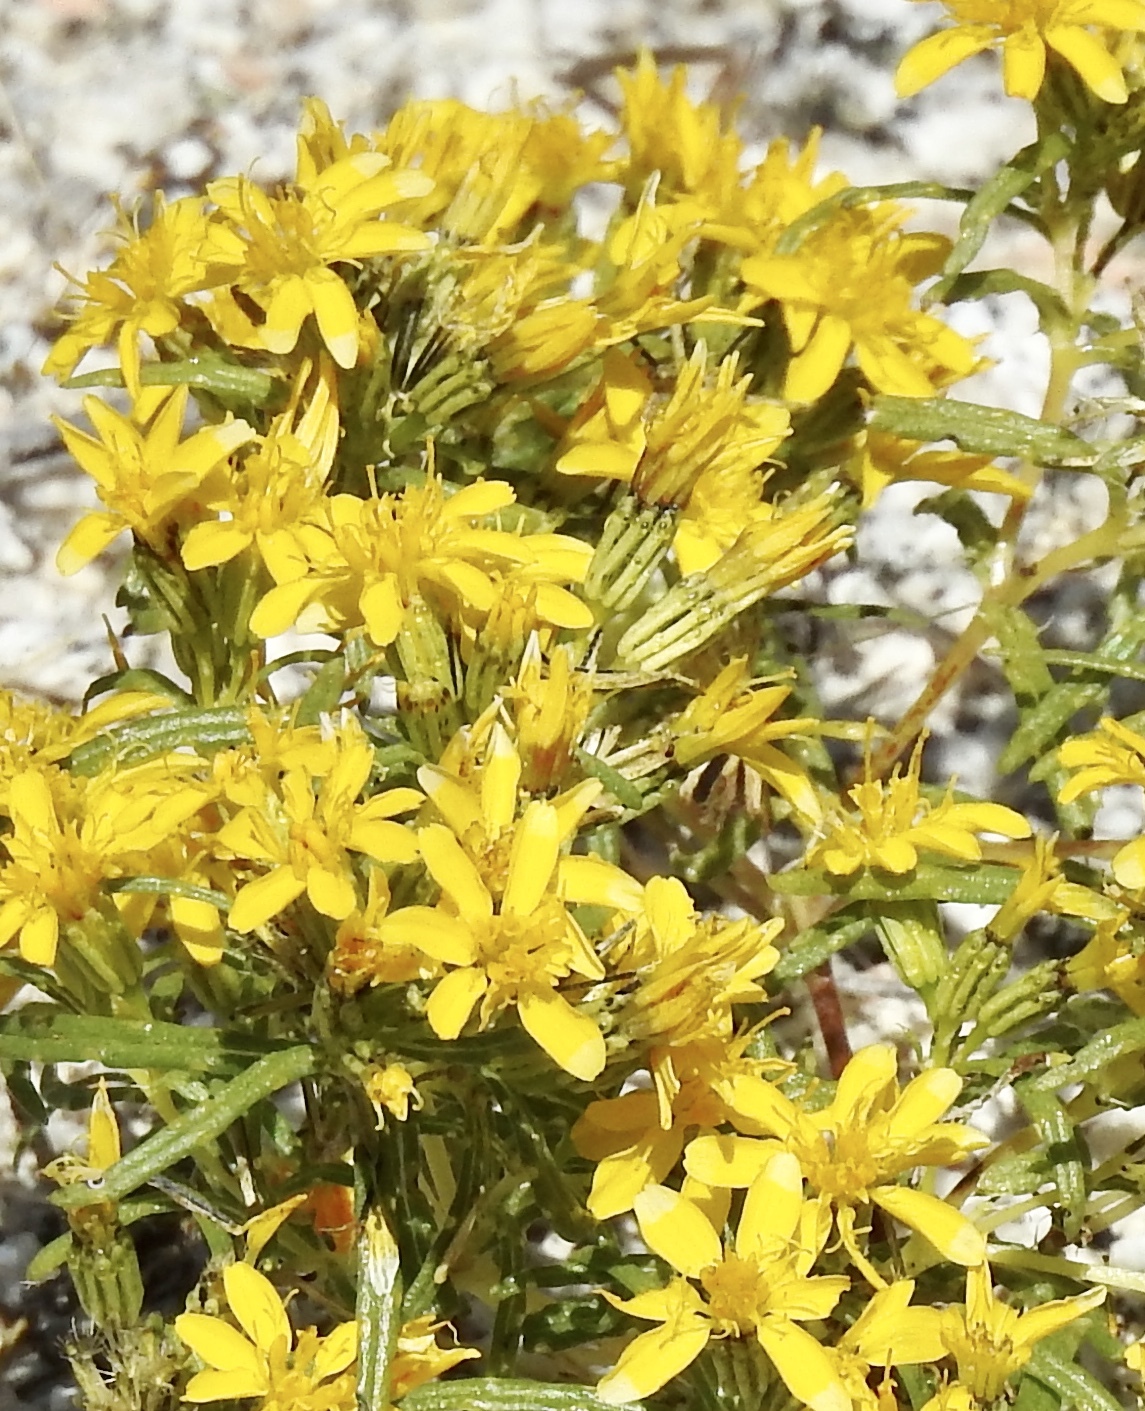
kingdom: Plantae
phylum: Tracheophyta
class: Magnoliopsida
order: Asterales
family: Asteraceae
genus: Pectis
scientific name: Pectis papposa
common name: Many-bristle chinchweed
